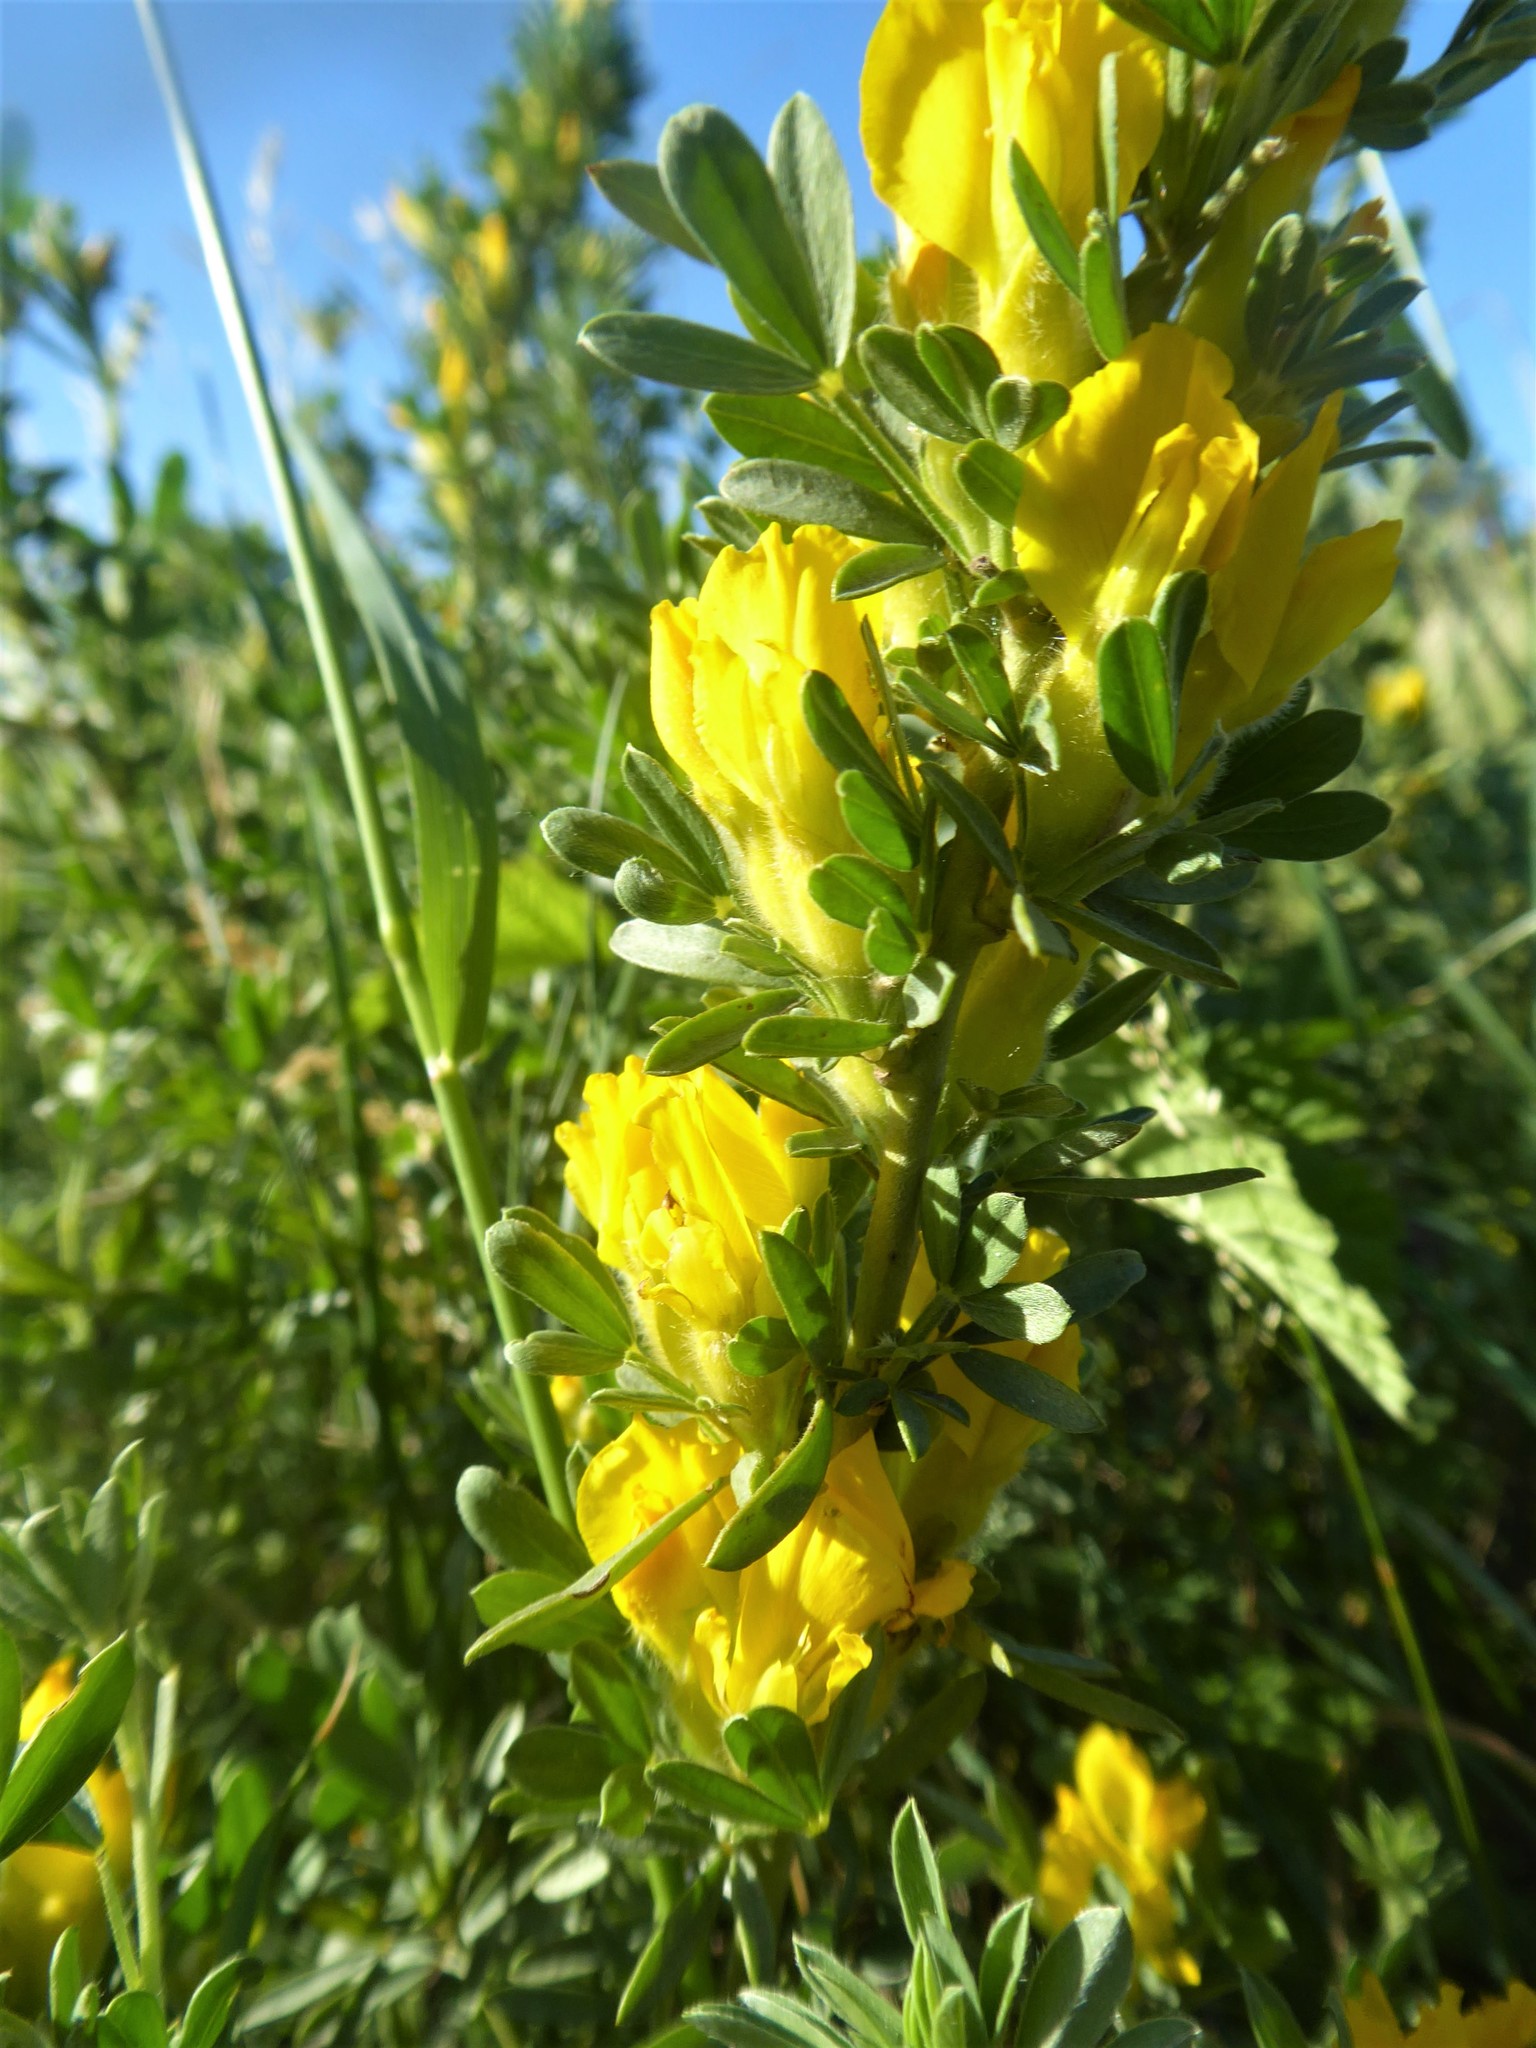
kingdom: Plantae
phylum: Tracheophyta
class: Magnoliopsida
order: Fabales
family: Fabaceae
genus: Chamaecytisus
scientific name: Chamaecytisus hirsutus
